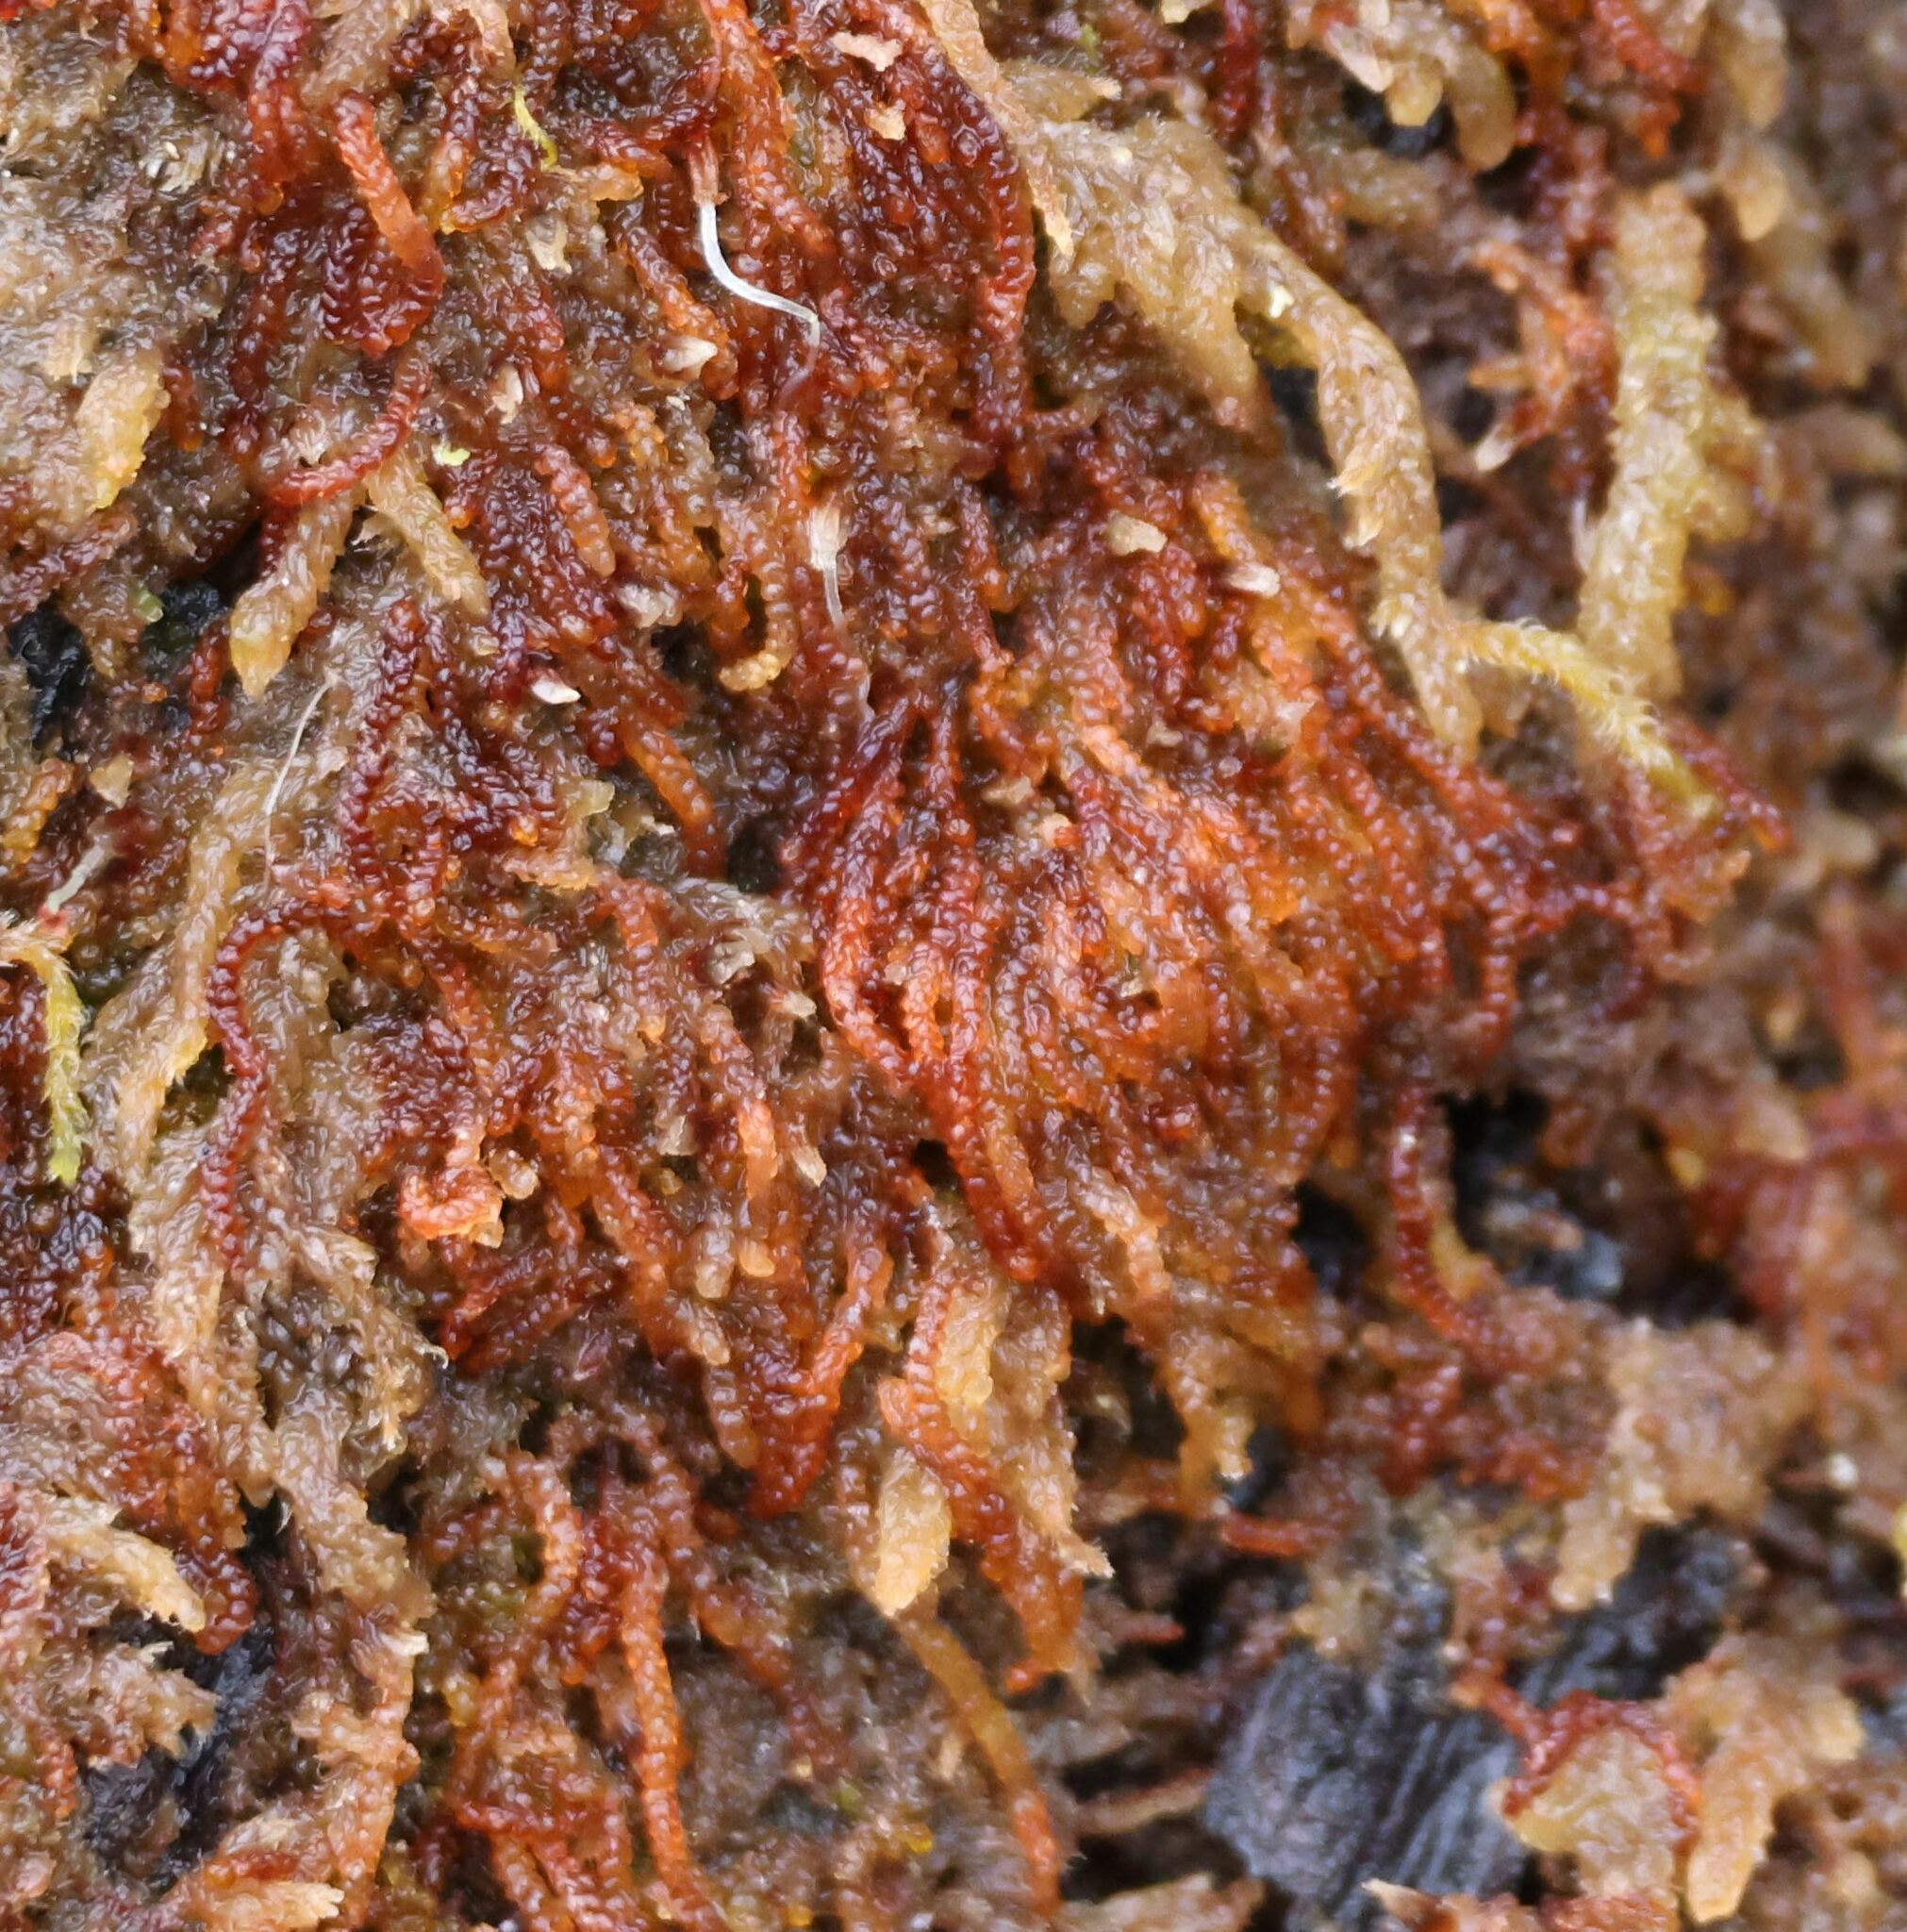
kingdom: Plantae
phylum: Marchantiophyta
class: Jungermanniopsida
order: Jungermanniales
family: Cephaloziaceae
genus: Nowellia
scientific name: Nowellia curvifolia
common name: Wood rustwort
